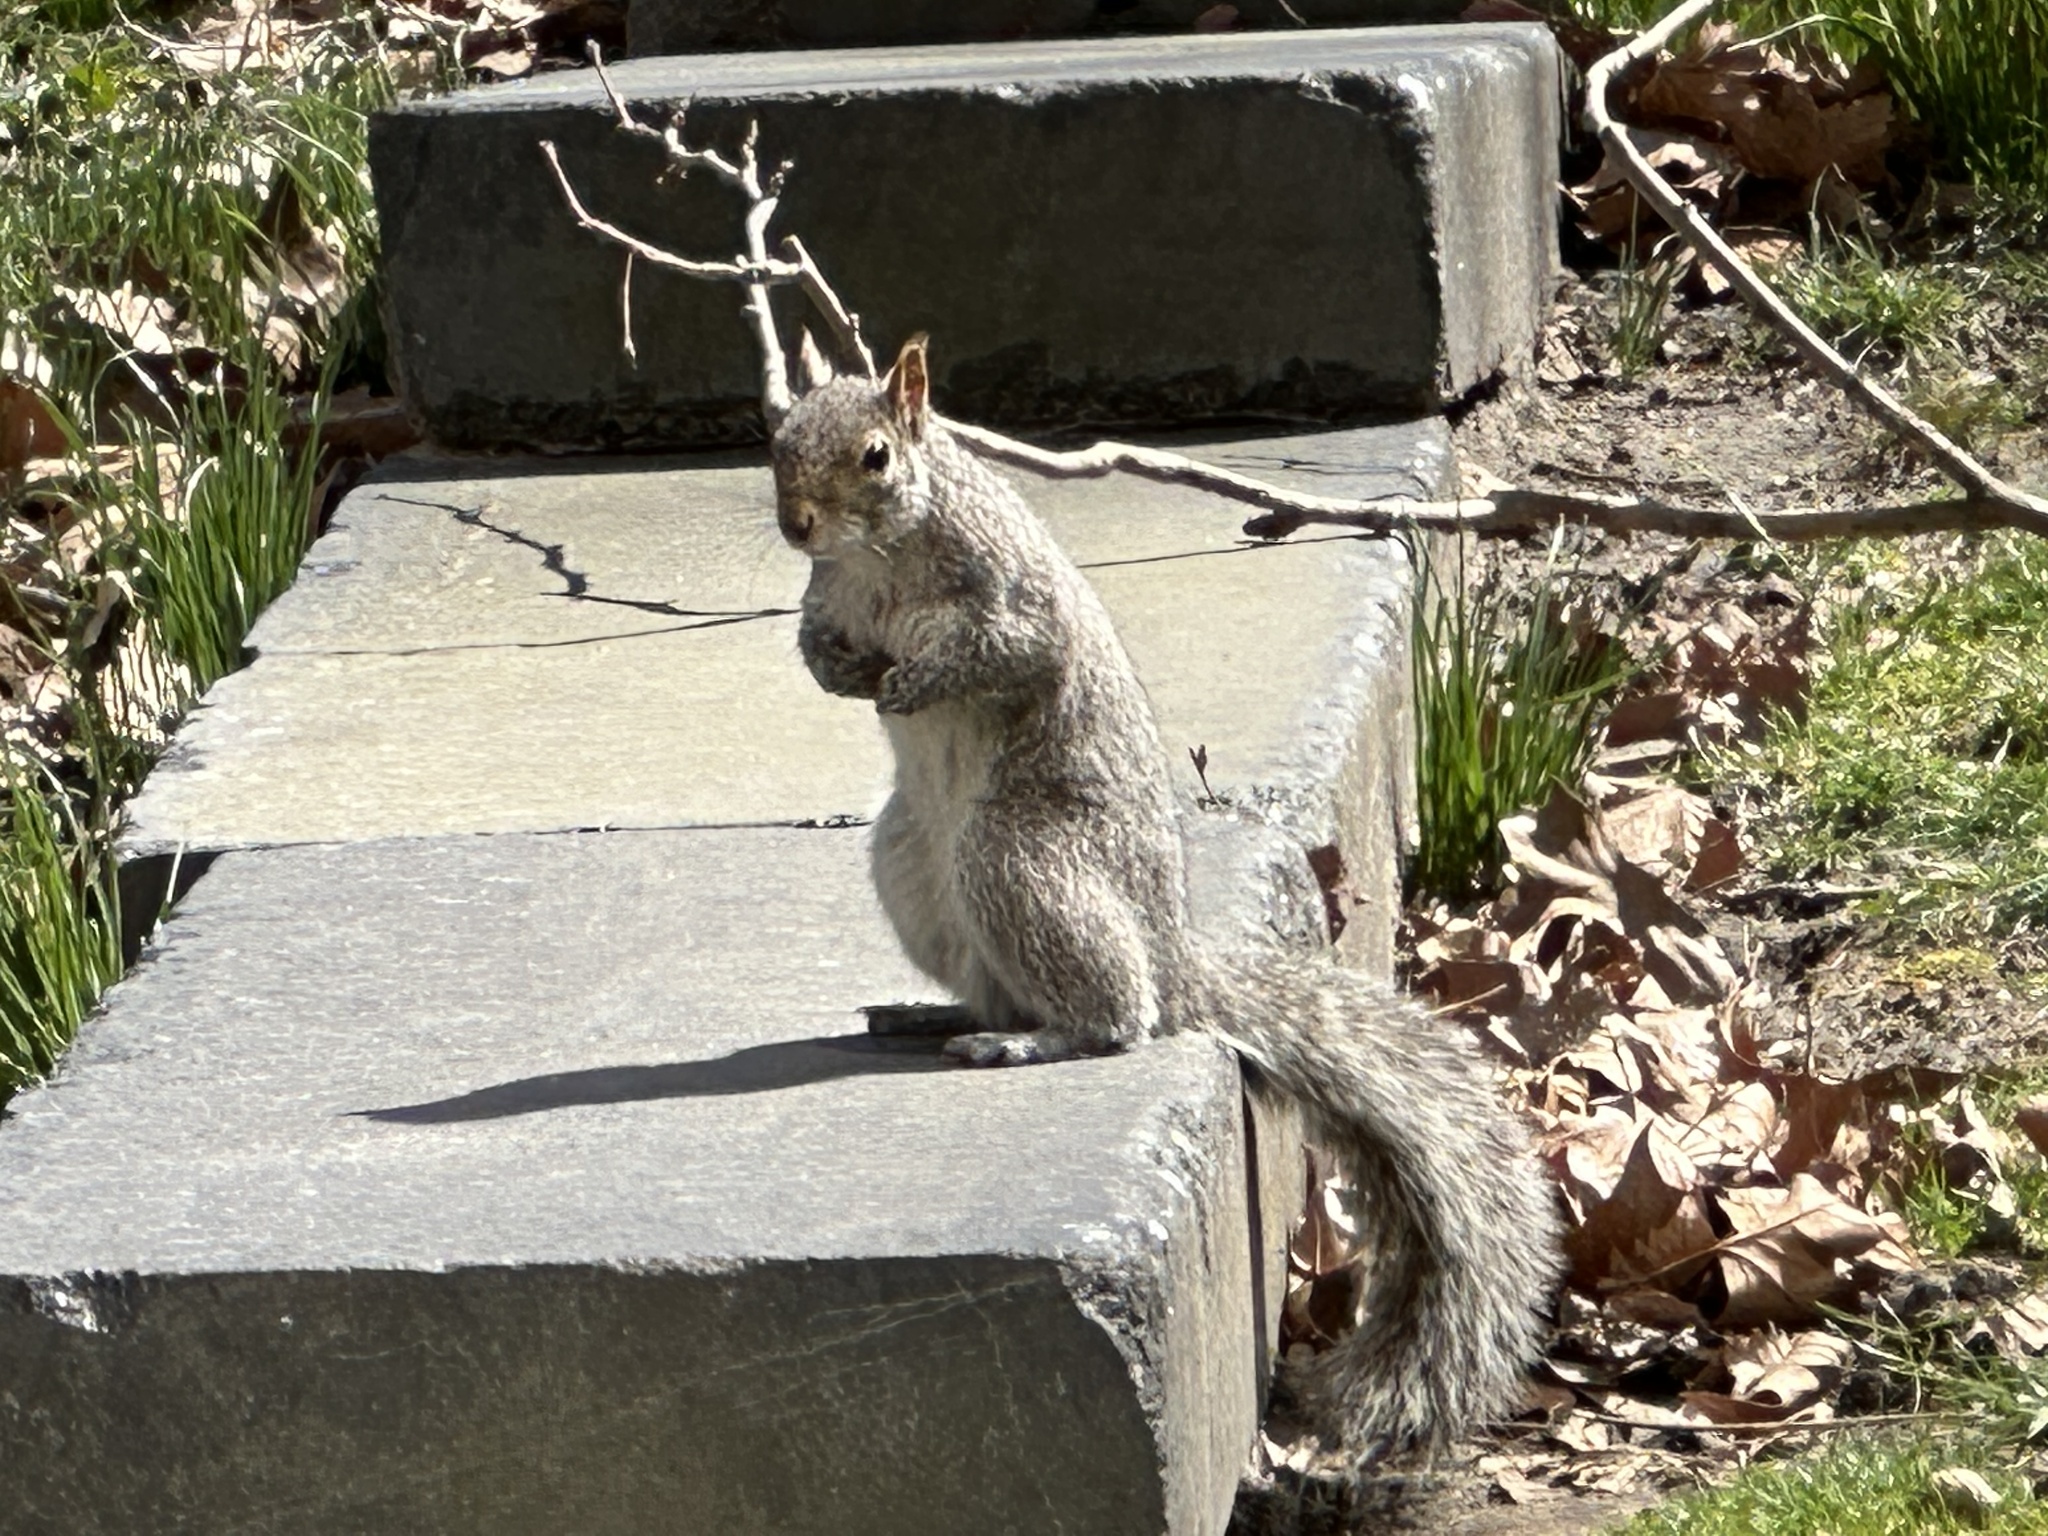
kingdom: Animalia
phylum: Chordata
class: Mammalia
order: Rodentia
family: Sciuridae
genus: Sciurus
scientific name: Sciurus carolinensis
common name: Eastern gray squirrel
